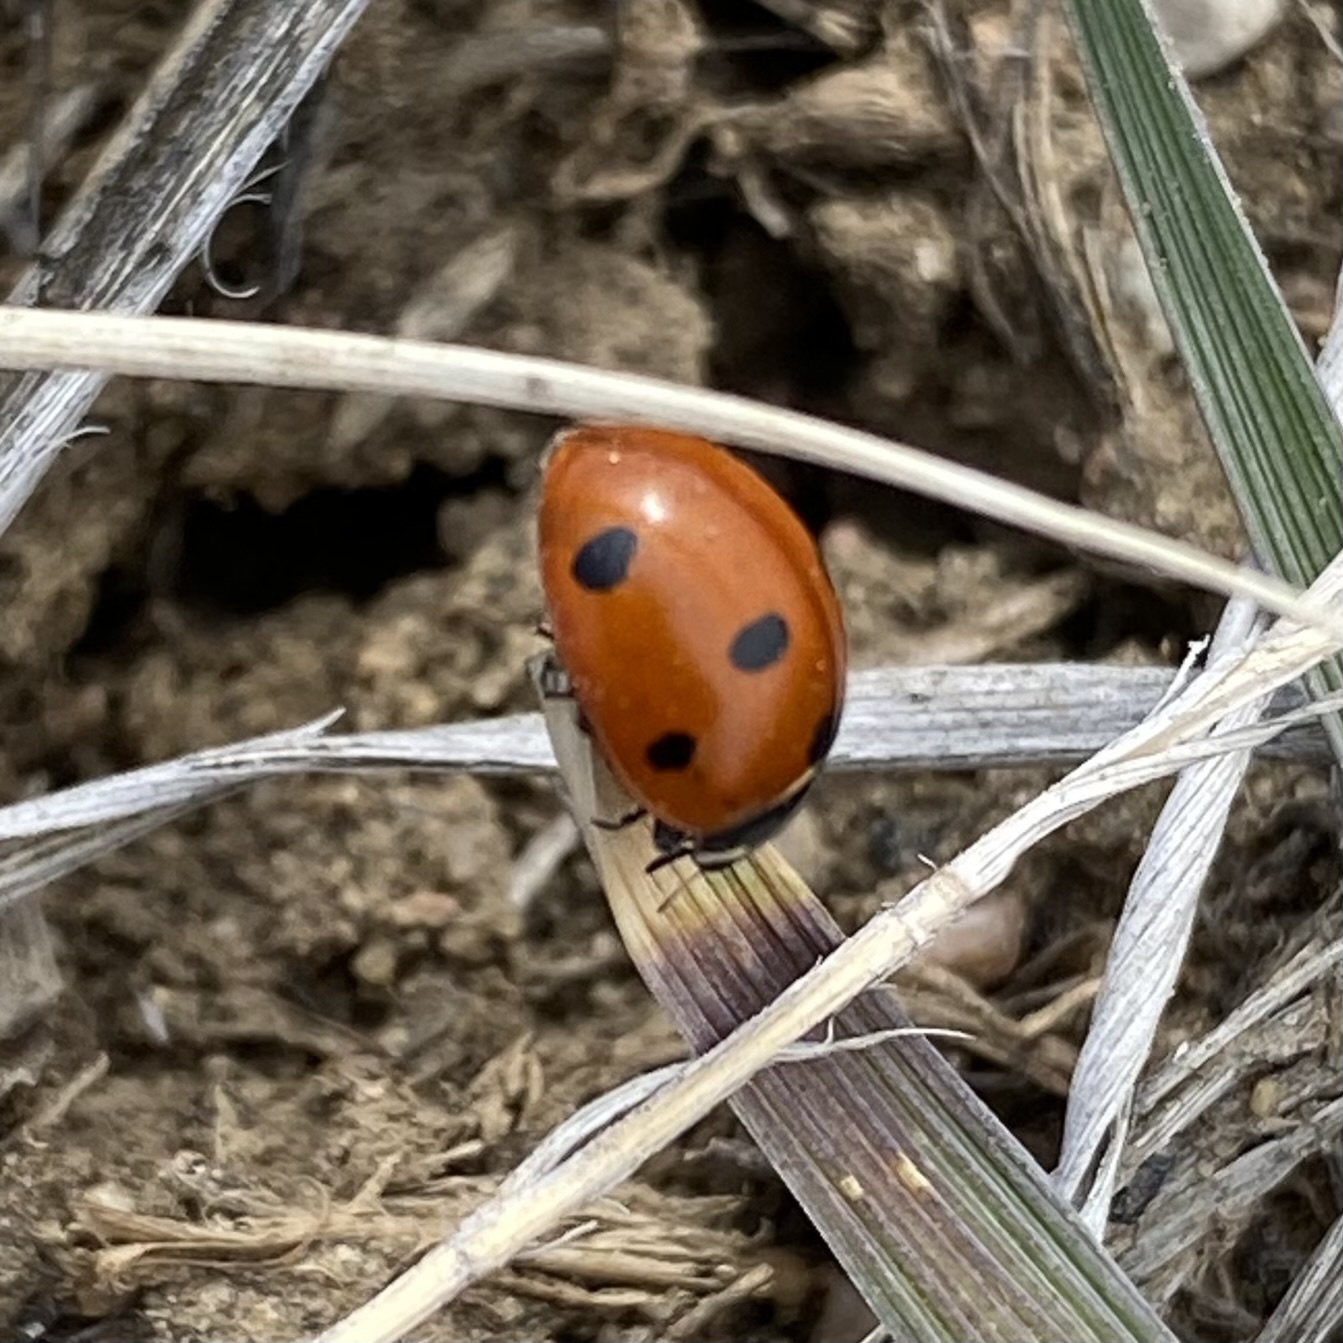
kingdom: Animalia
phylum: Arthropoda
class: Insecta
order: Coleoptera
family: Coccinellidae
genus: Coccinella
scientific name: Coccinella septempunctata
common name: Sevenspotted lady beetle
